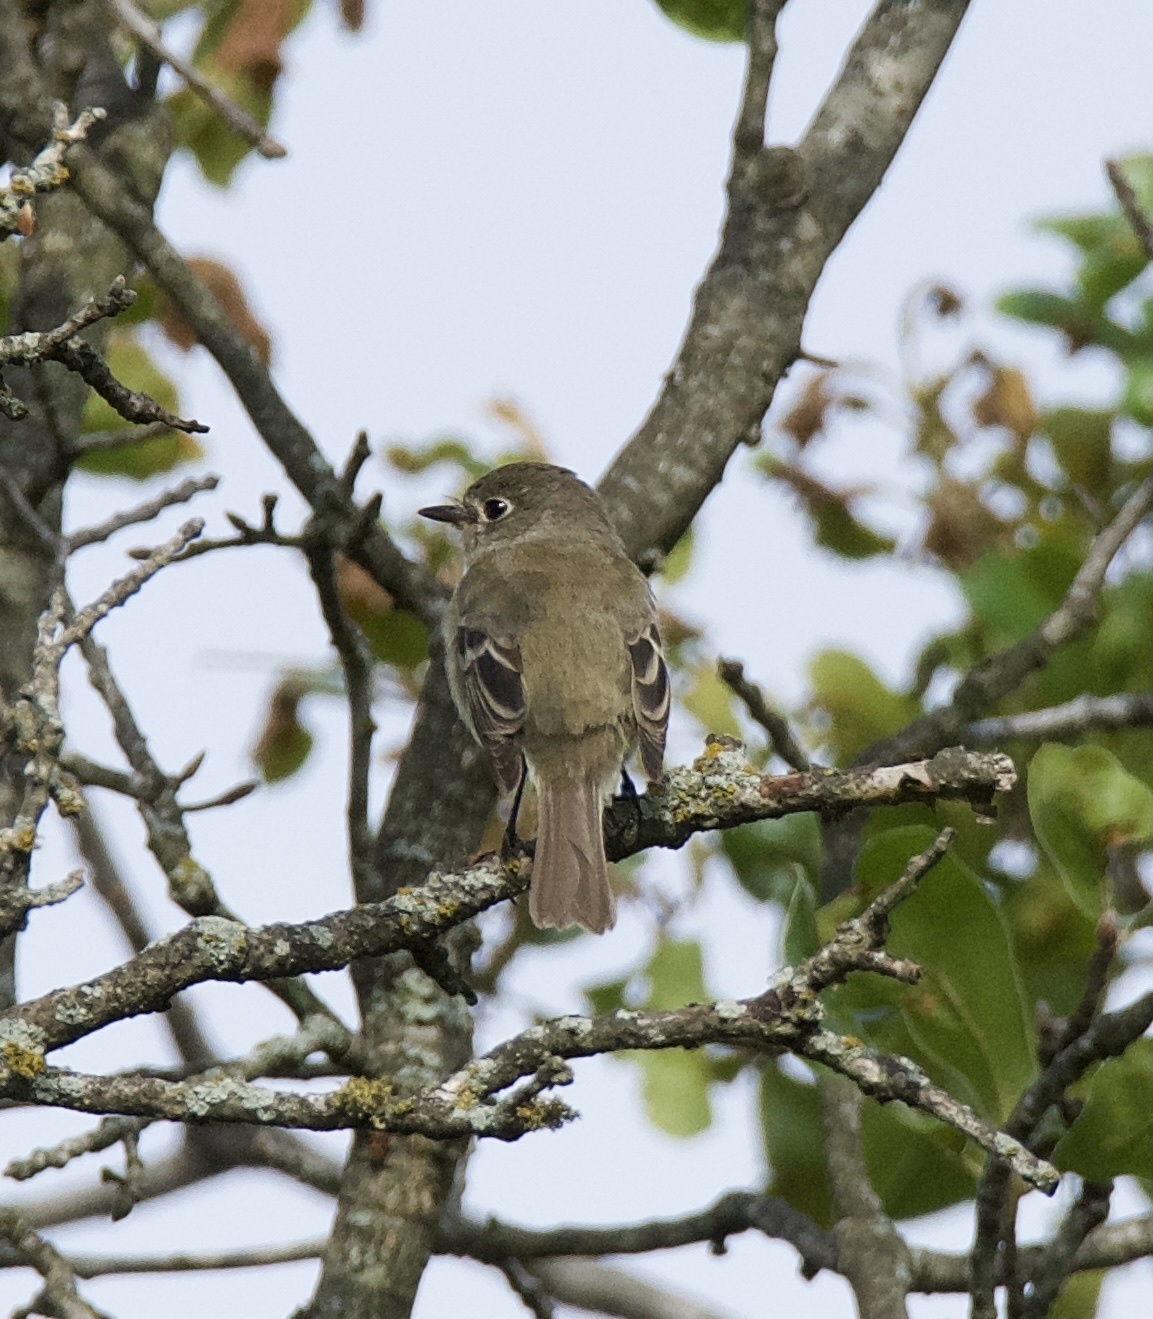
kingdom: Animalia
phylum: Chordata
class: Aves
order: Passeriformes
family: Tyrannidae
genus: Empidonax
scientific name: Empidonax minimus
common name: Least flycatcher
